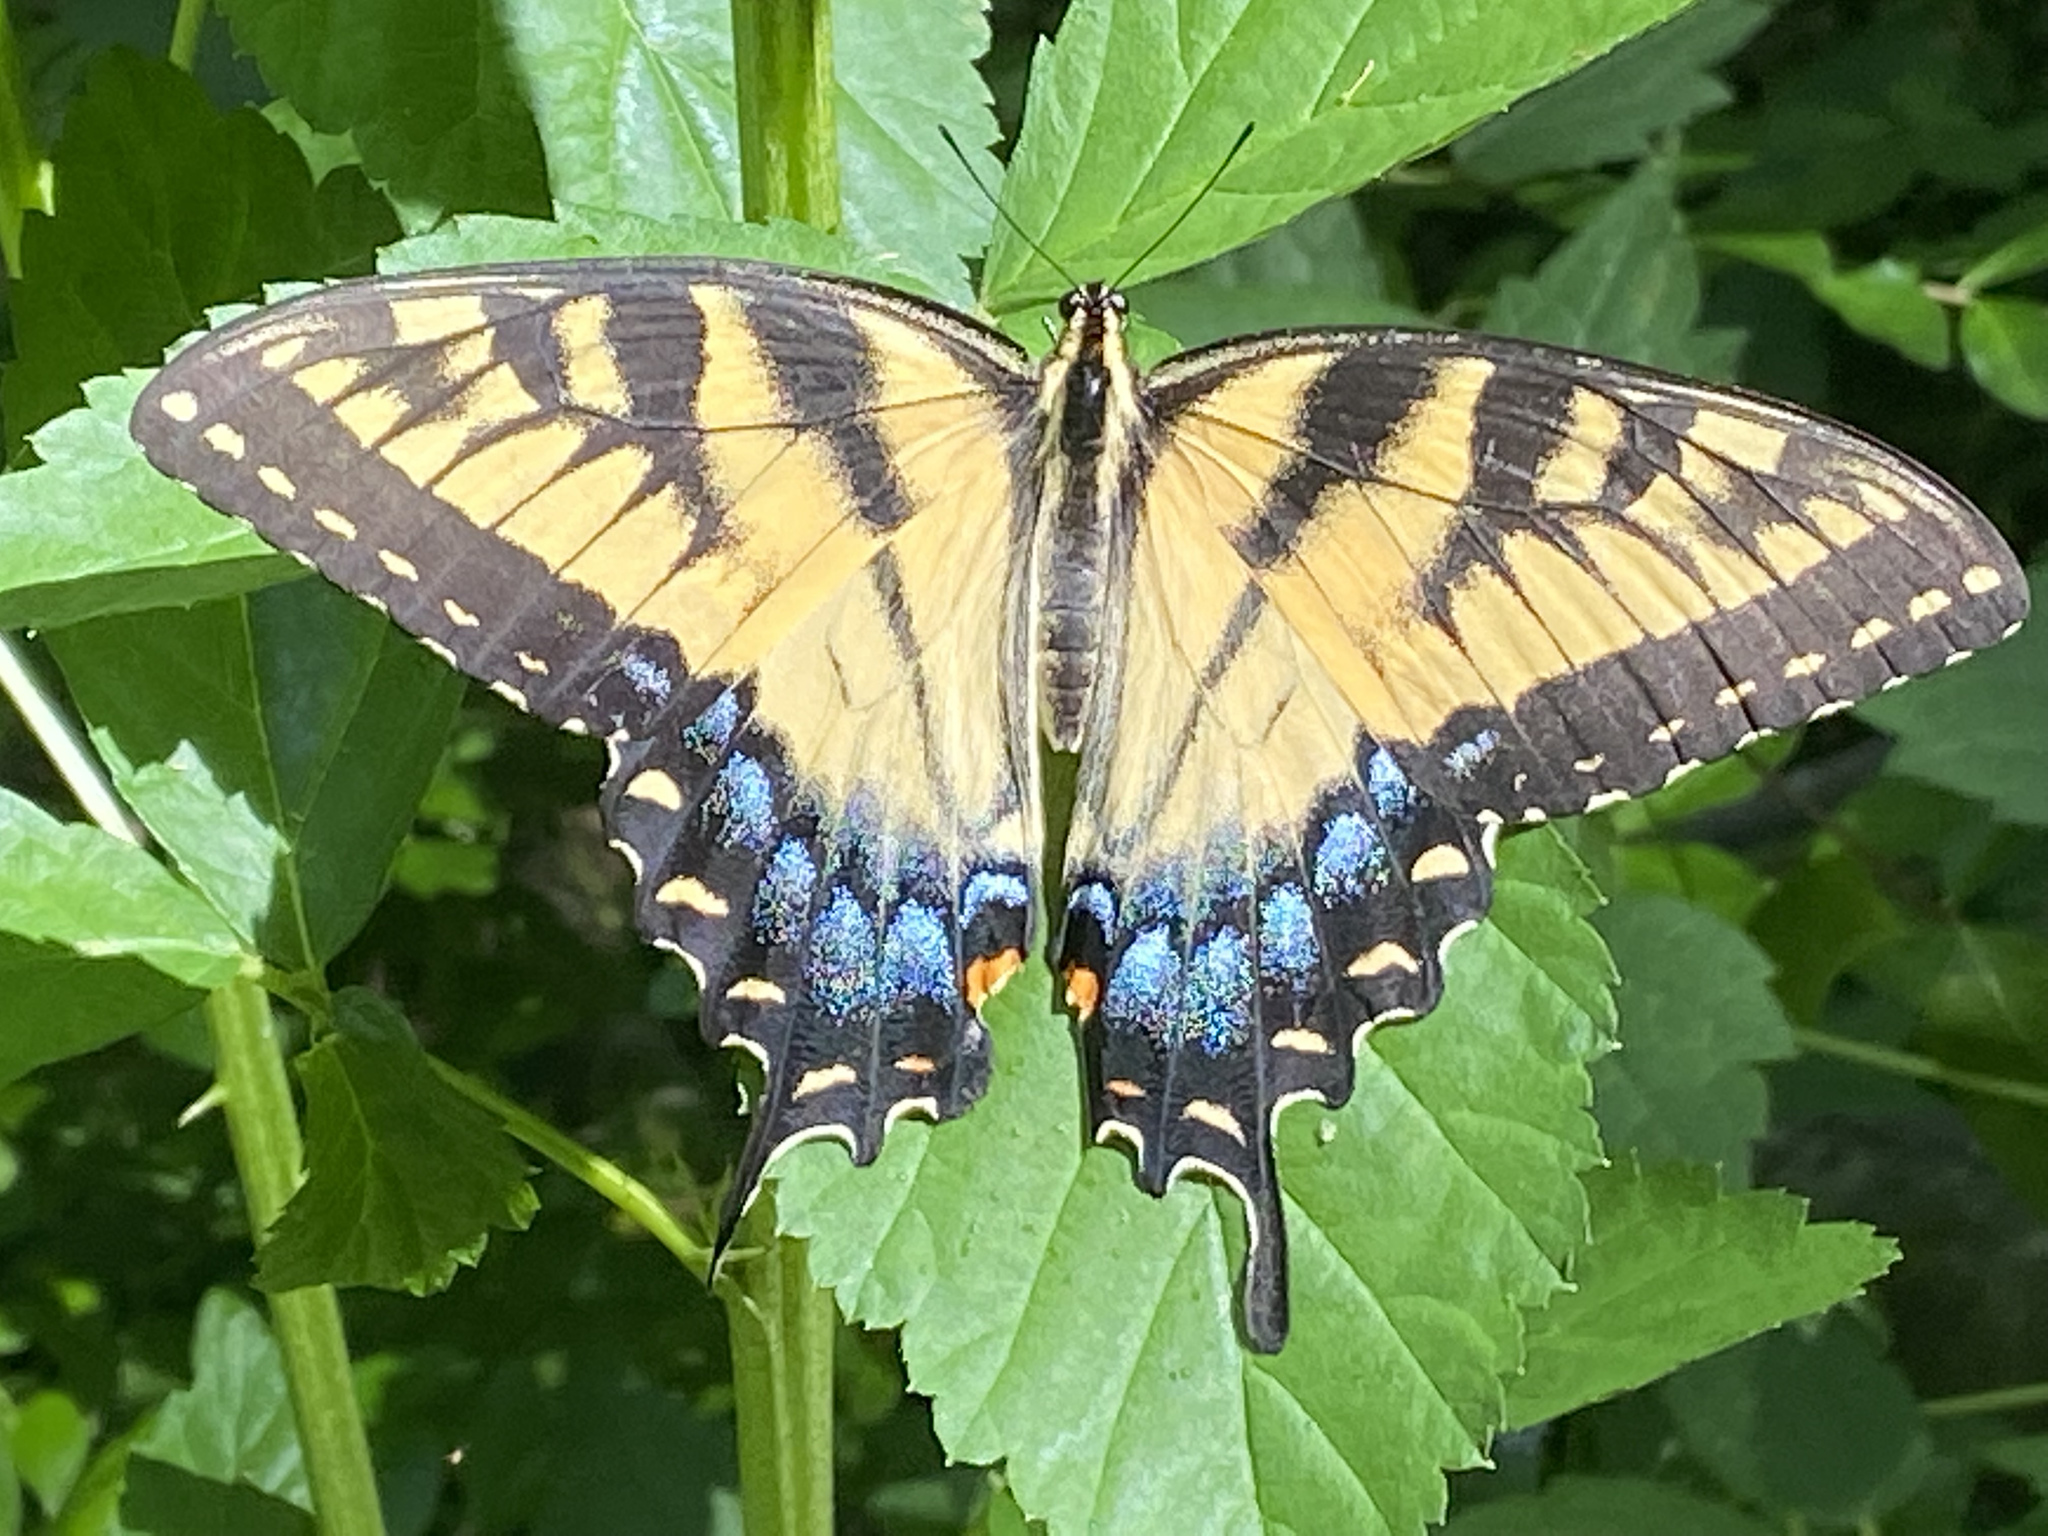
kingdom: Animalia
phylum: Arthropoda
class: Insecta
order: Lepidoptera
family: Papilionidae
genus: Papilio
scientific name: Papilio glaucus
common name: Tiger swallowtail
